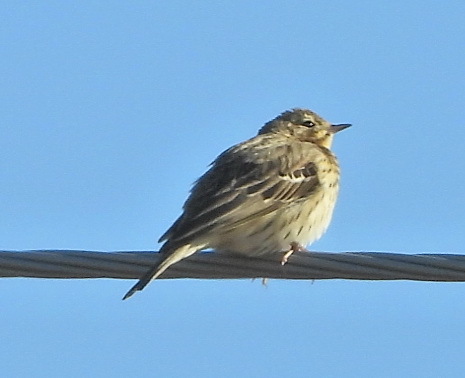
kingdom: Animalia
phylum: Chordata
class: Aves
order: Passeriformes
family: Motacillidae
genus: Anthus
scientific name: Anthus trivialis
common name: Tree pipit
